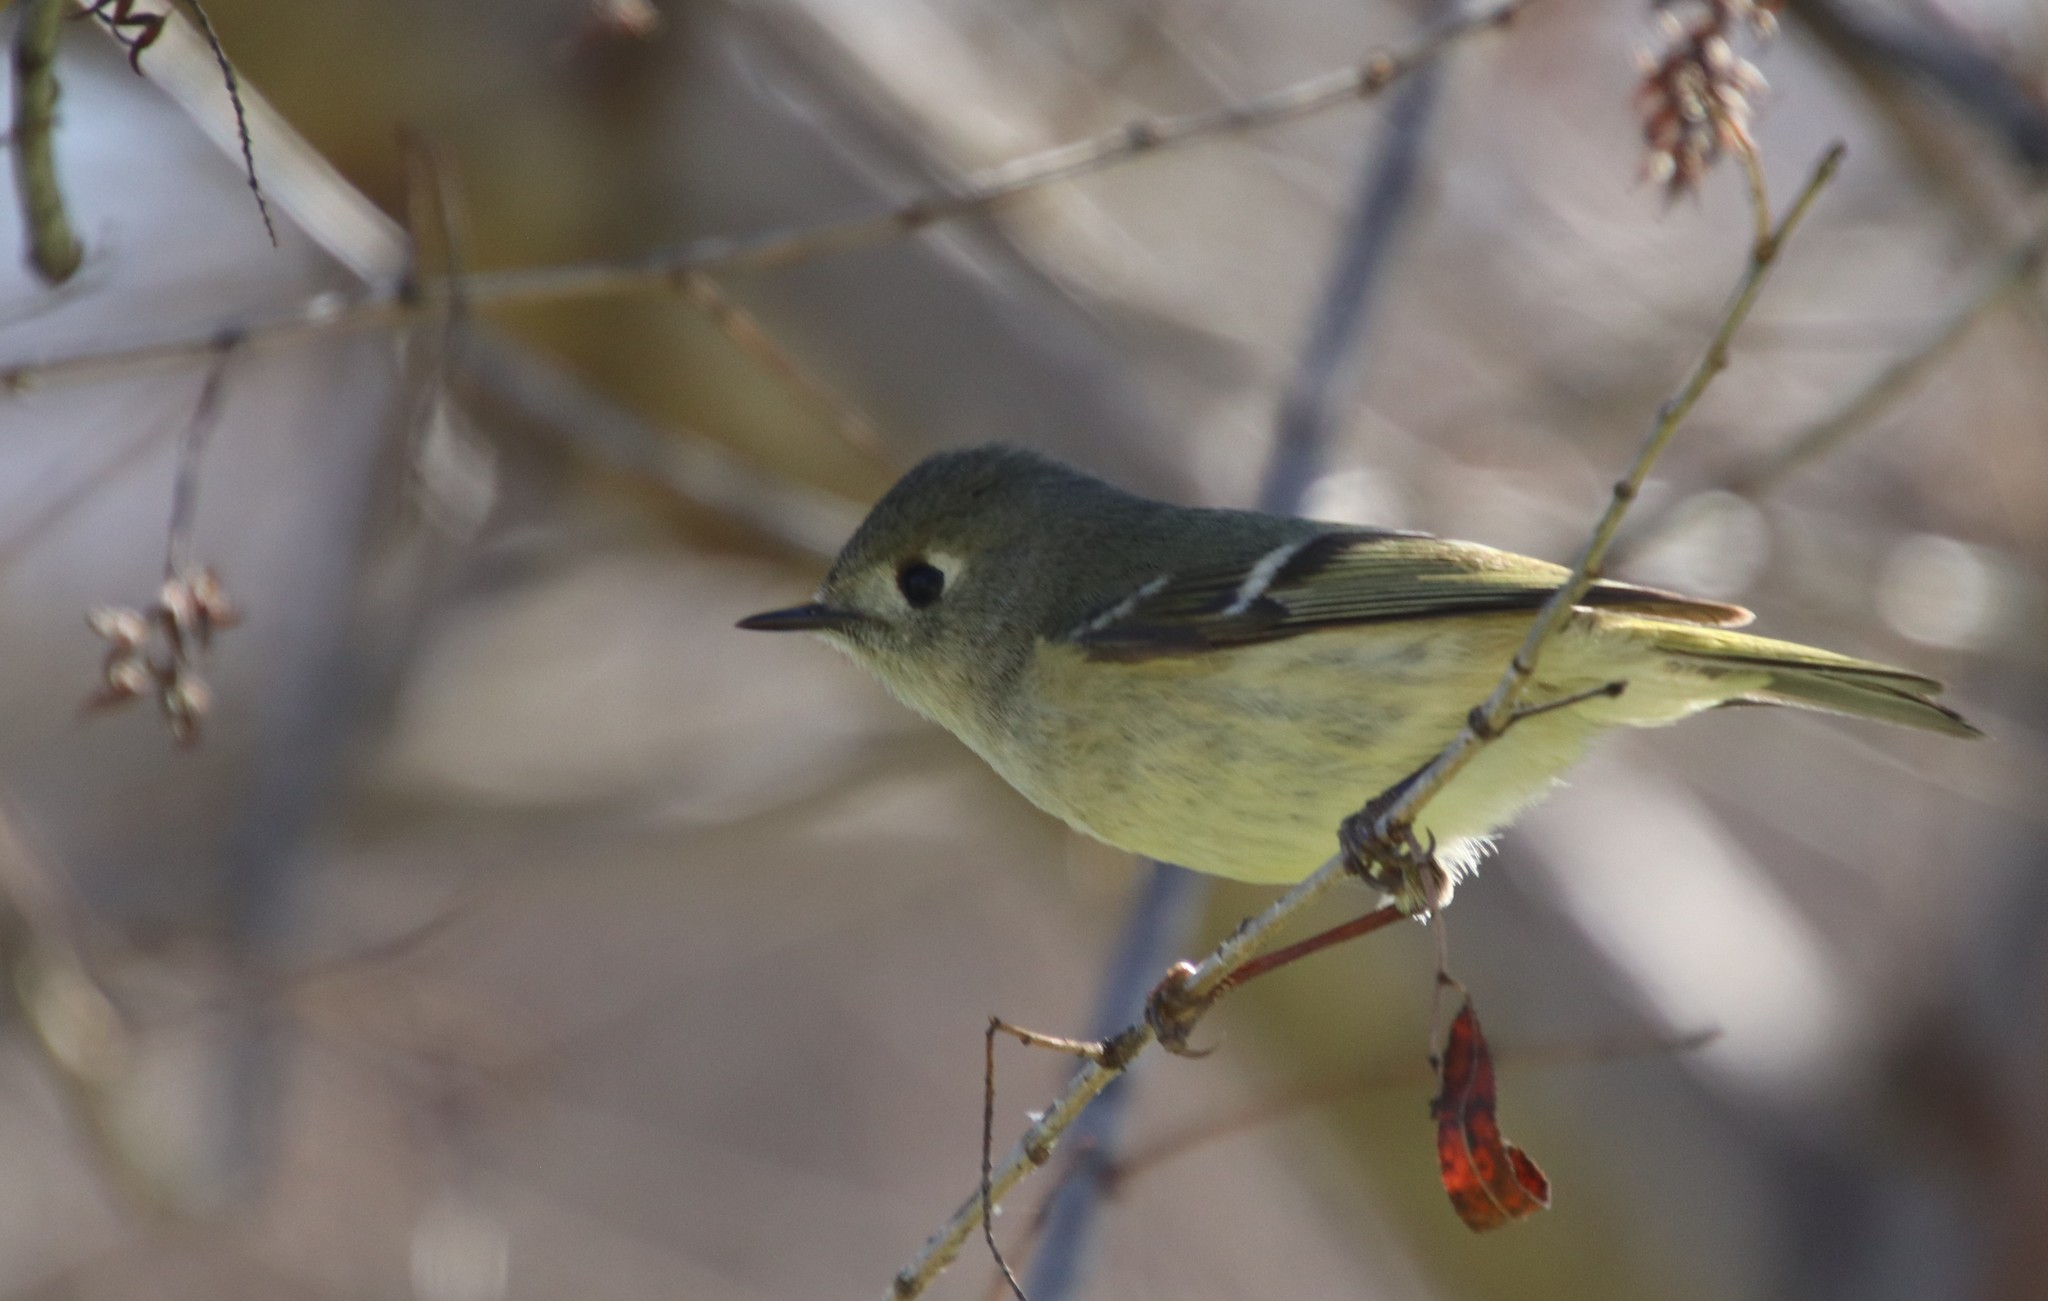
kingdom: Animalia
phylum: Chordata
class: Aves
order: Passeriformes
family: Regulidae
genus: Regulus
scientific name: Regulus calendula
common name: Ruby-crowned kinglet
